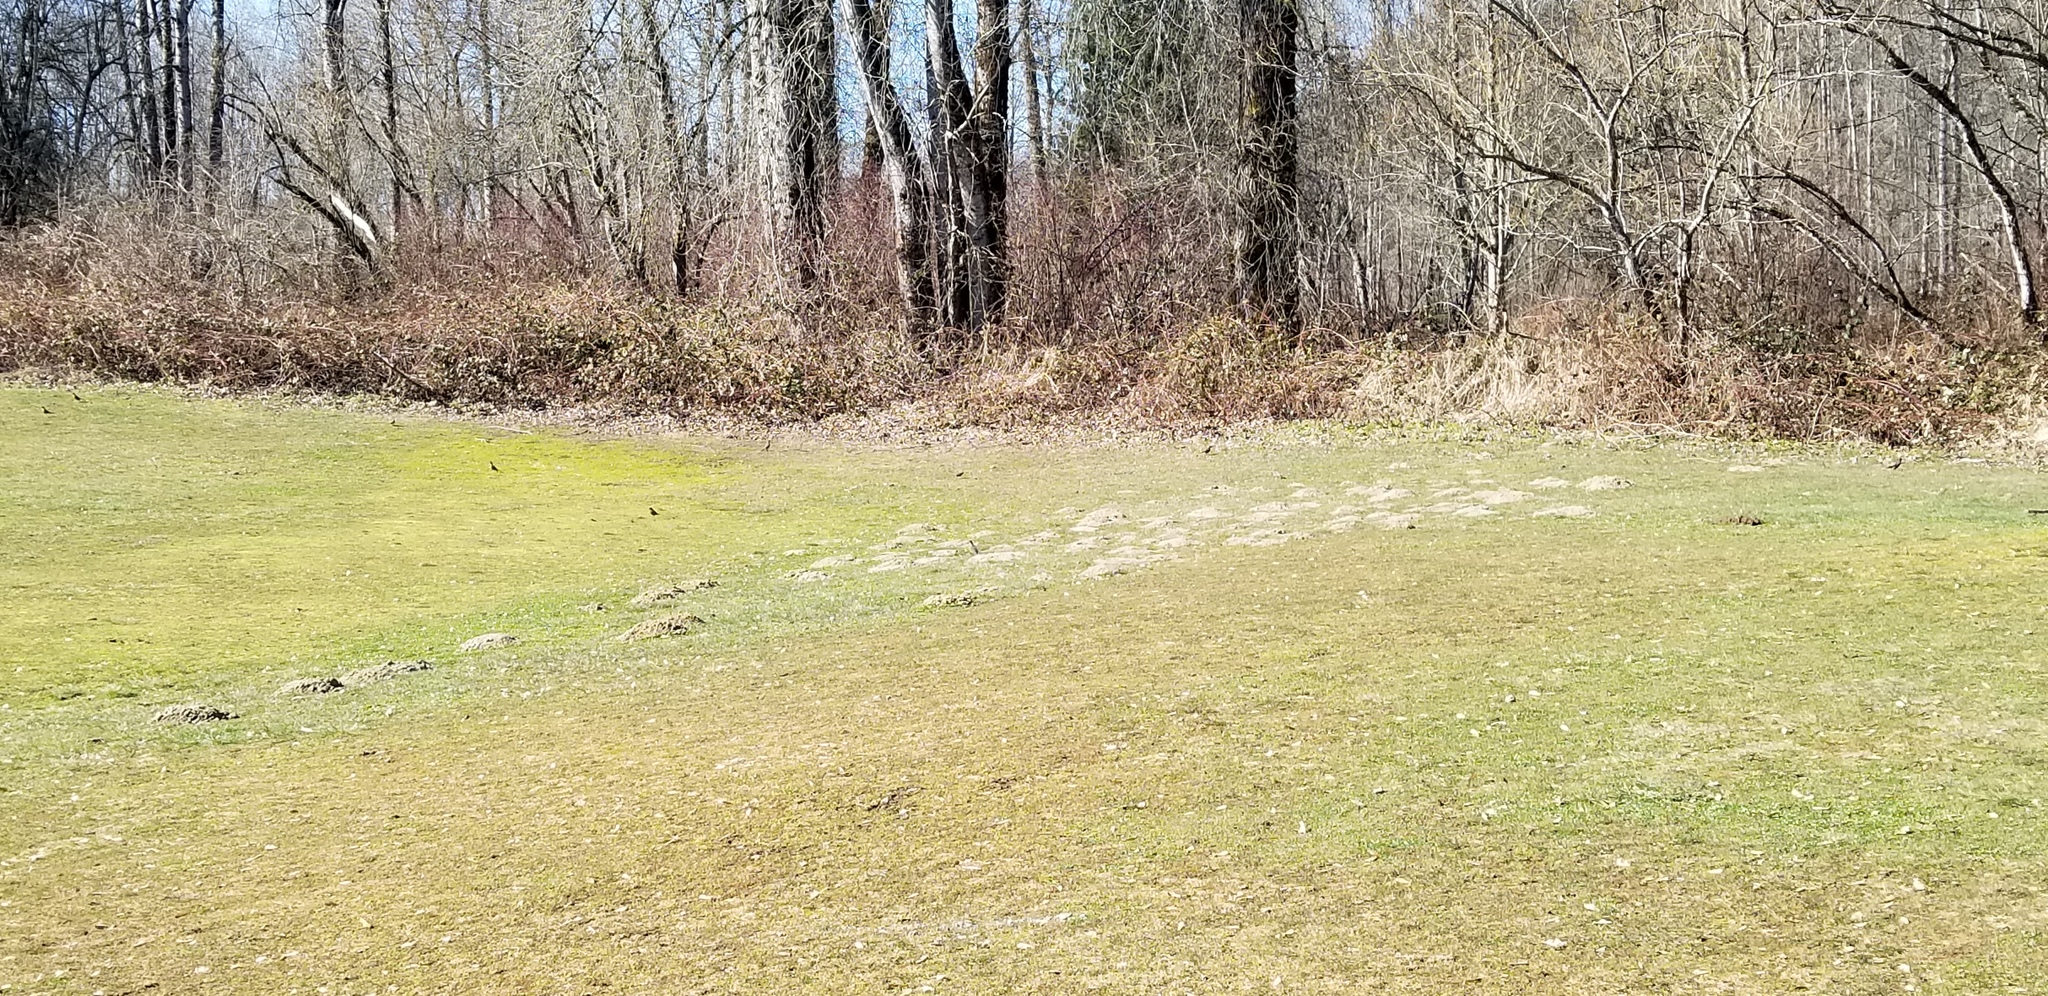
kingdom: Animalia
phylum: Chordata
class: Mammalia
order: Soricomorpha
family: Talpidae
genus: Scapanus
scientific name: Scapanus orarius
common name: Coast mole
